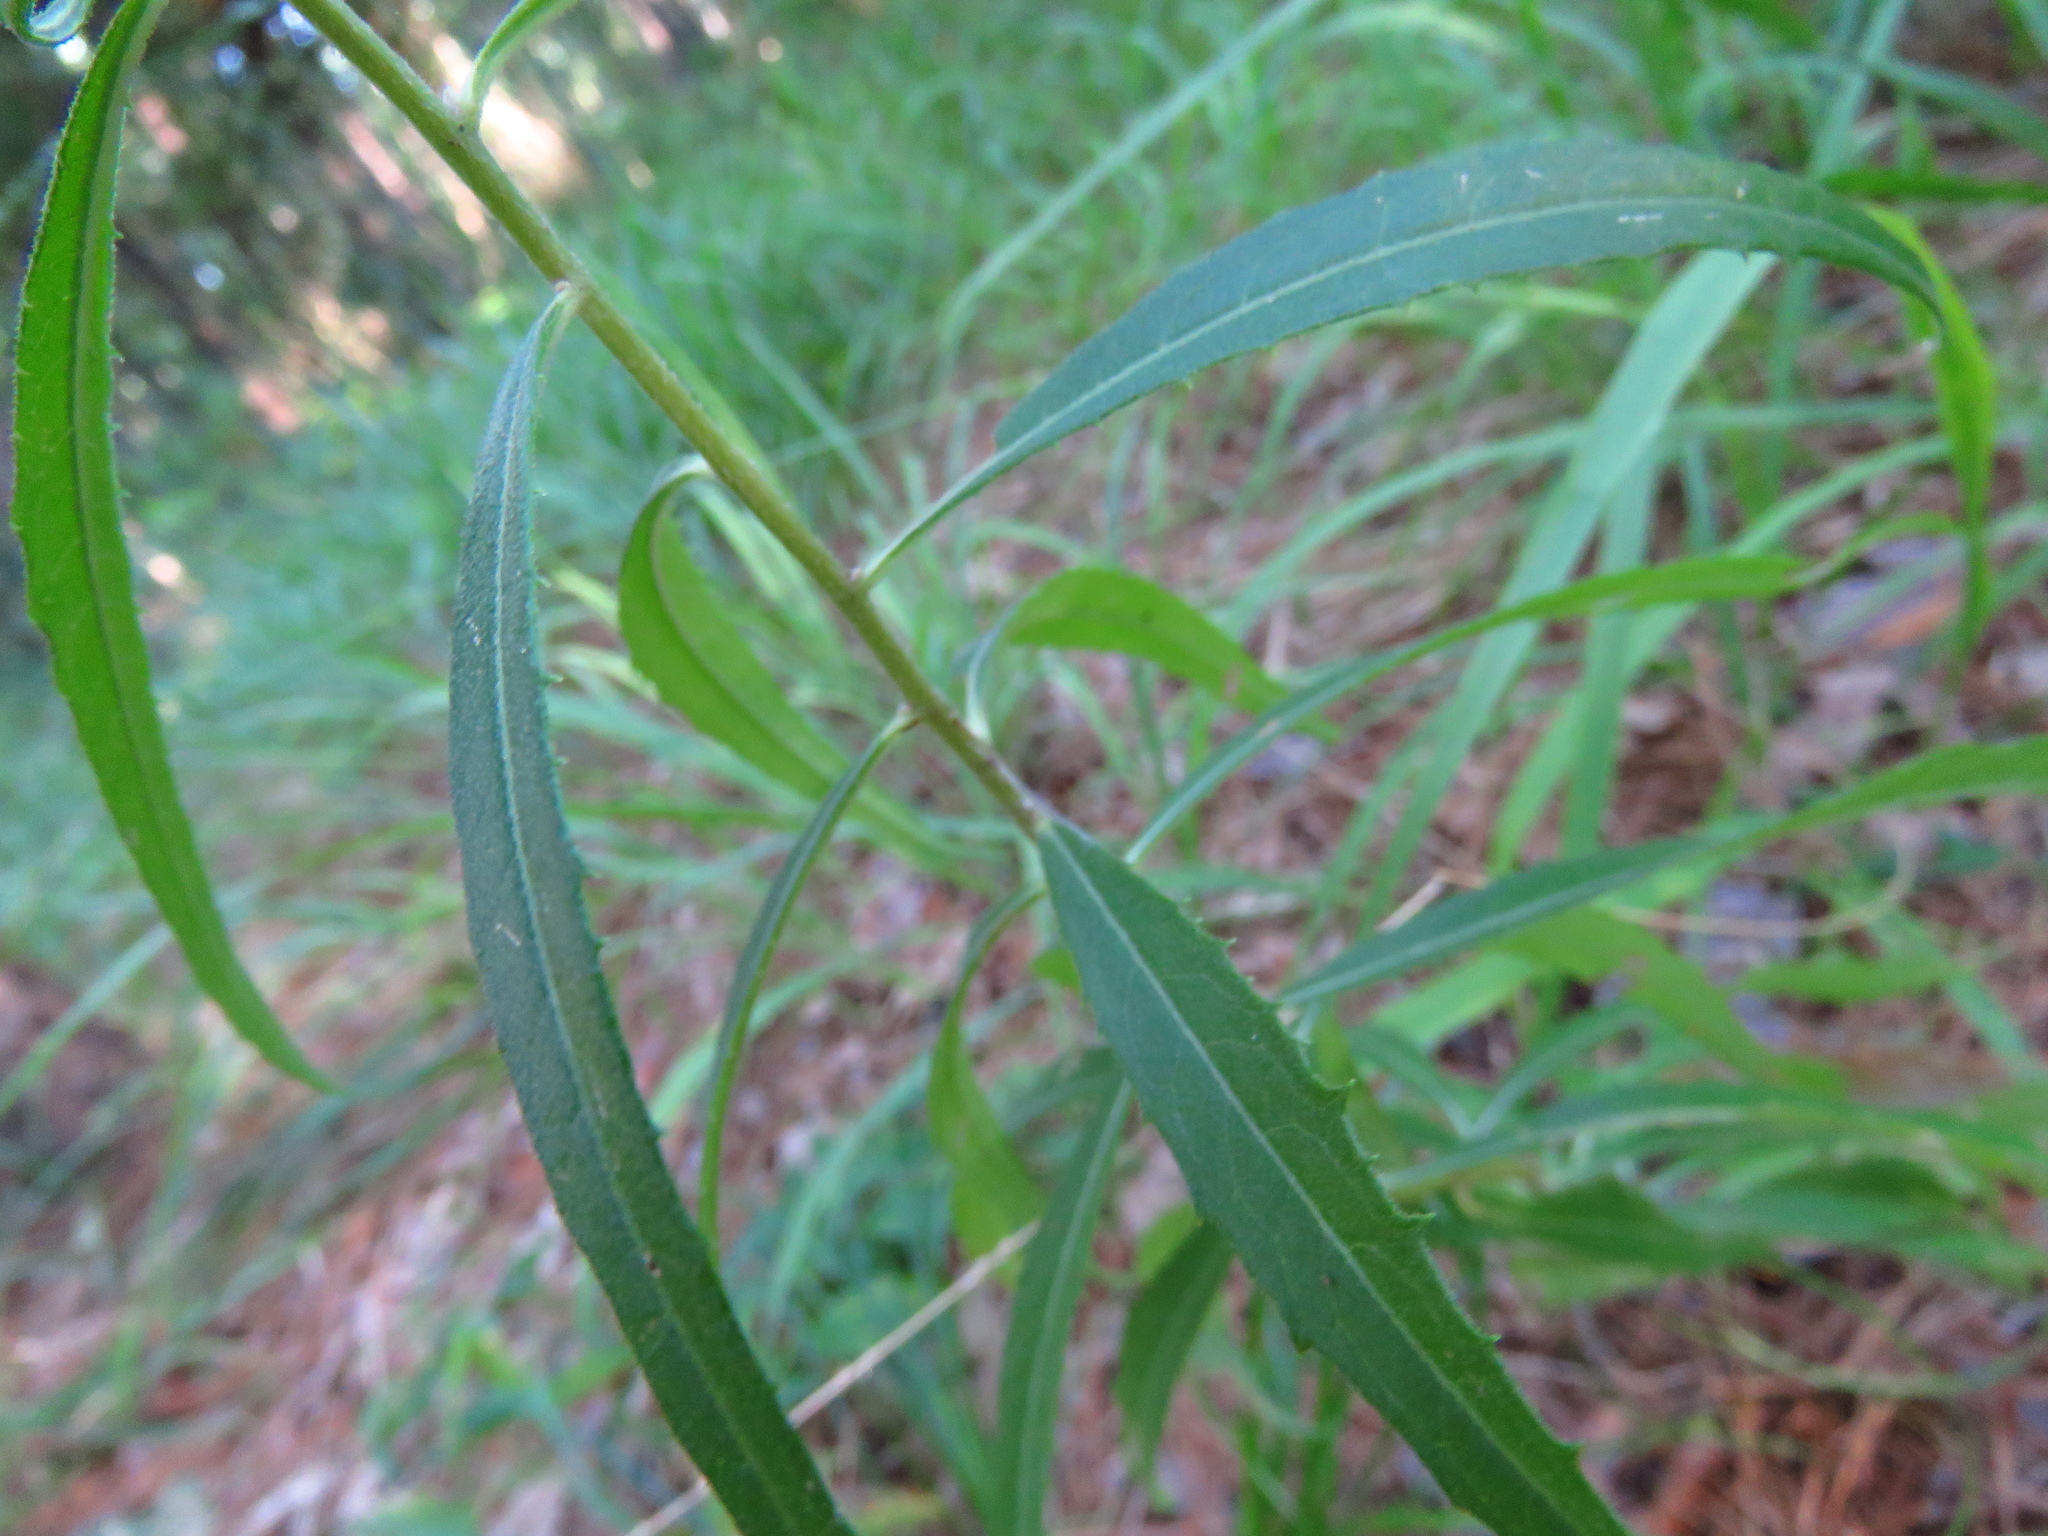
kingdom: Plantae
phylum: Tracheophyta
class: Magnoliopsida
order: Asterales
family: Asteraceae
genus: Vernonia
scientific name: Vernonia texana
